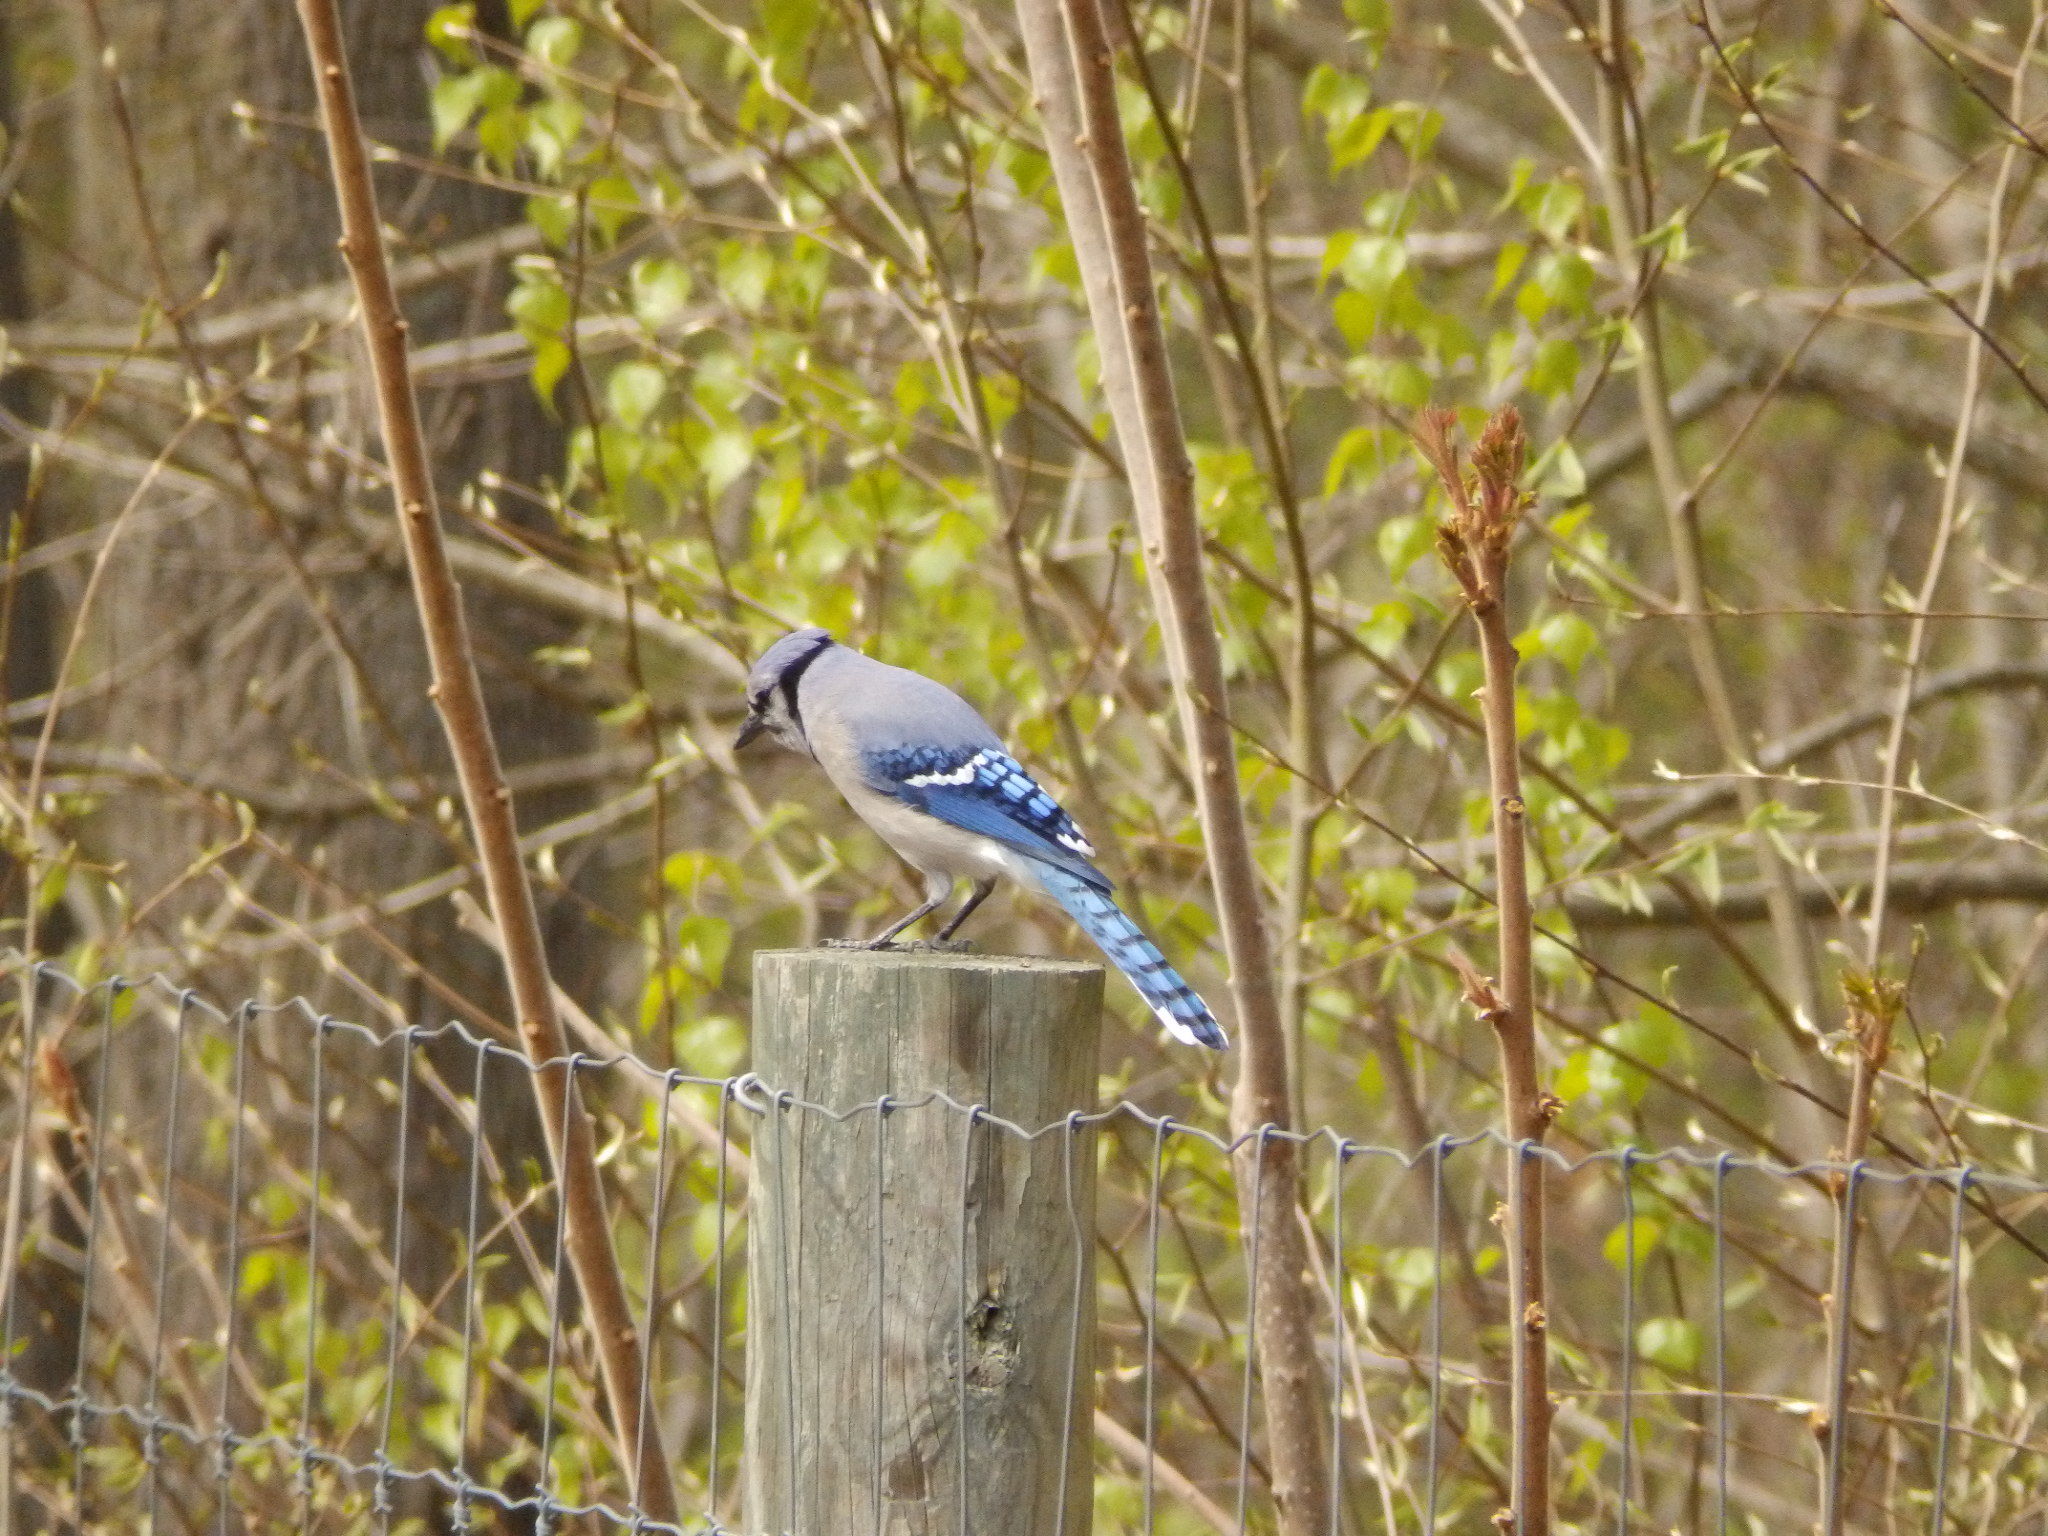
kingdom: Animalia
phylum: Chordata
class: Aves
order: Passeriformes
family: Corvidae
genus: Cyanocitta
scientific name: Cyanocitta cristata
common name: Blue jay
